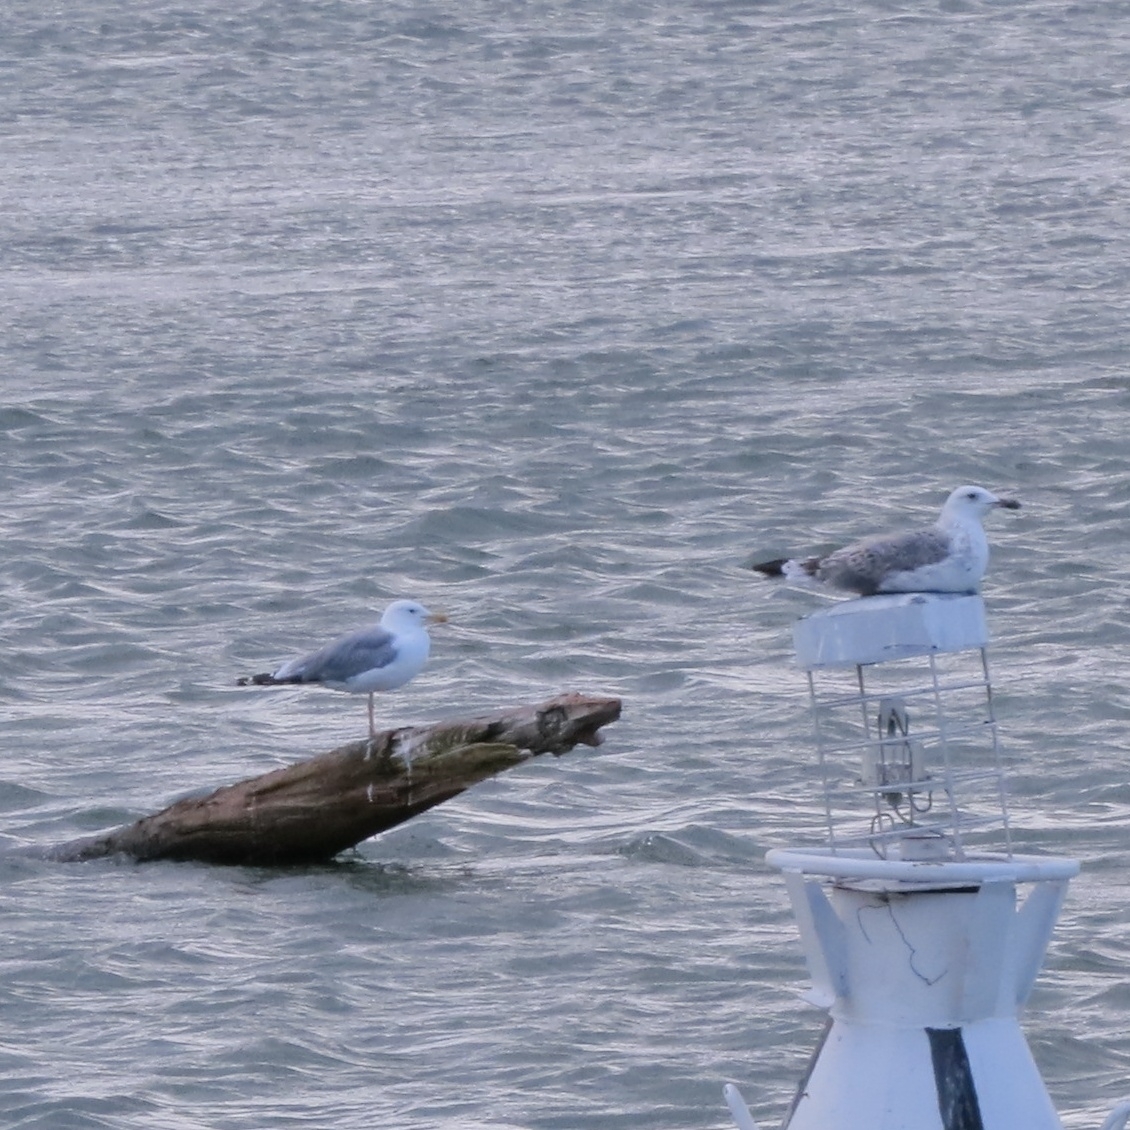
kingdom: Animalia
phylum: Chordata
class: Aves
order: Charadriiformes
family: Laridae
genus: Larus
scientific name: Larus canus
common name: Mew gull
